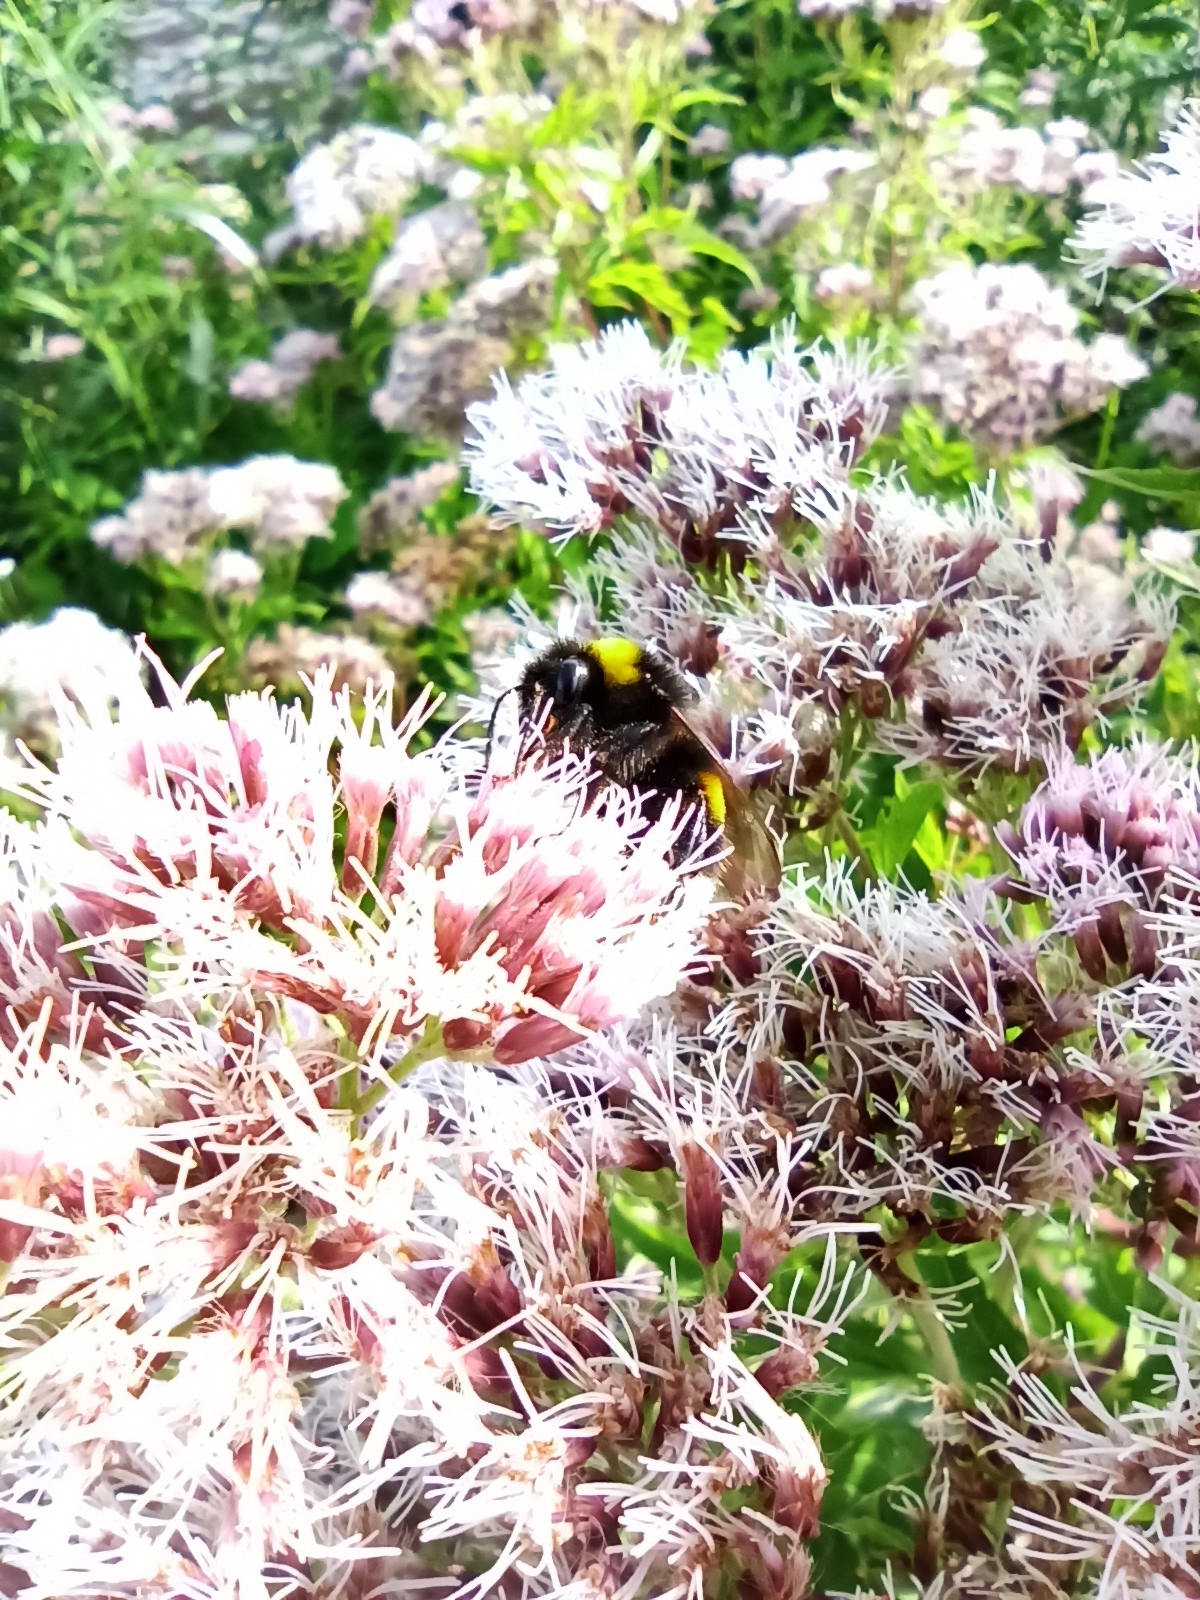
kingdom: Animalia
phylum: Arthropoda
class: Insecta
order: Hymenoptera
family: Apidae
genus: Bombus
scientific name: Bombus
